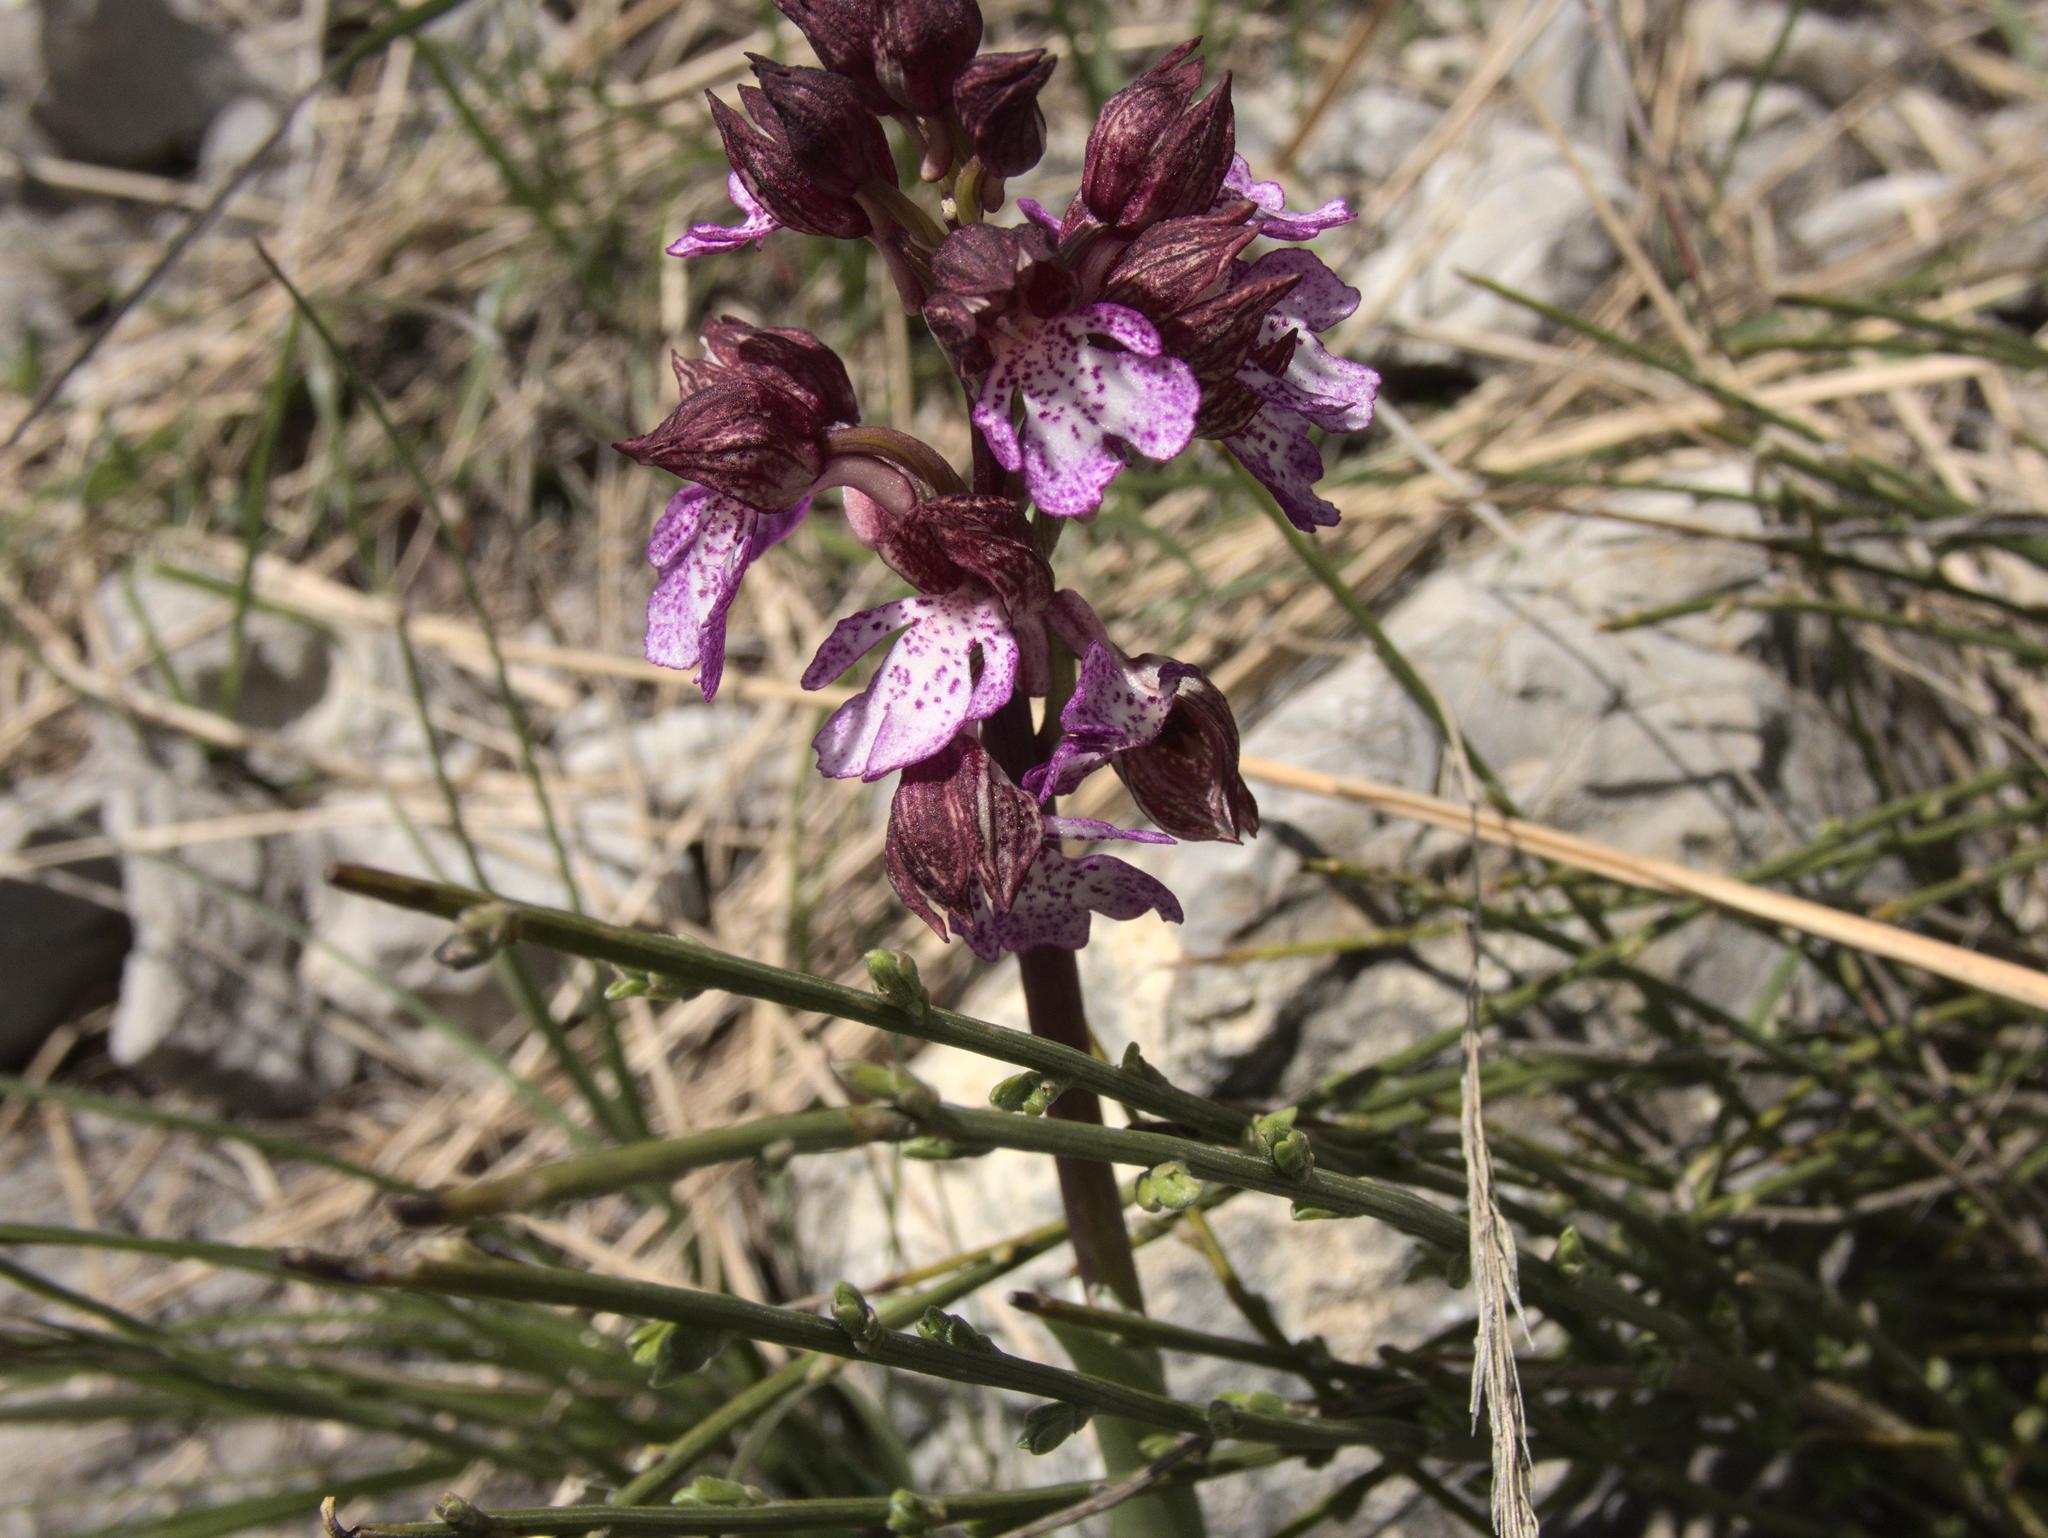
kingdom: Plantae
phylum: Tracheophyta
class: Liliopsida
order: Asparagales
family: Orchidaceae
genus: Orchis
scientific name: Orchis purpurea
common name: Lady orchid
